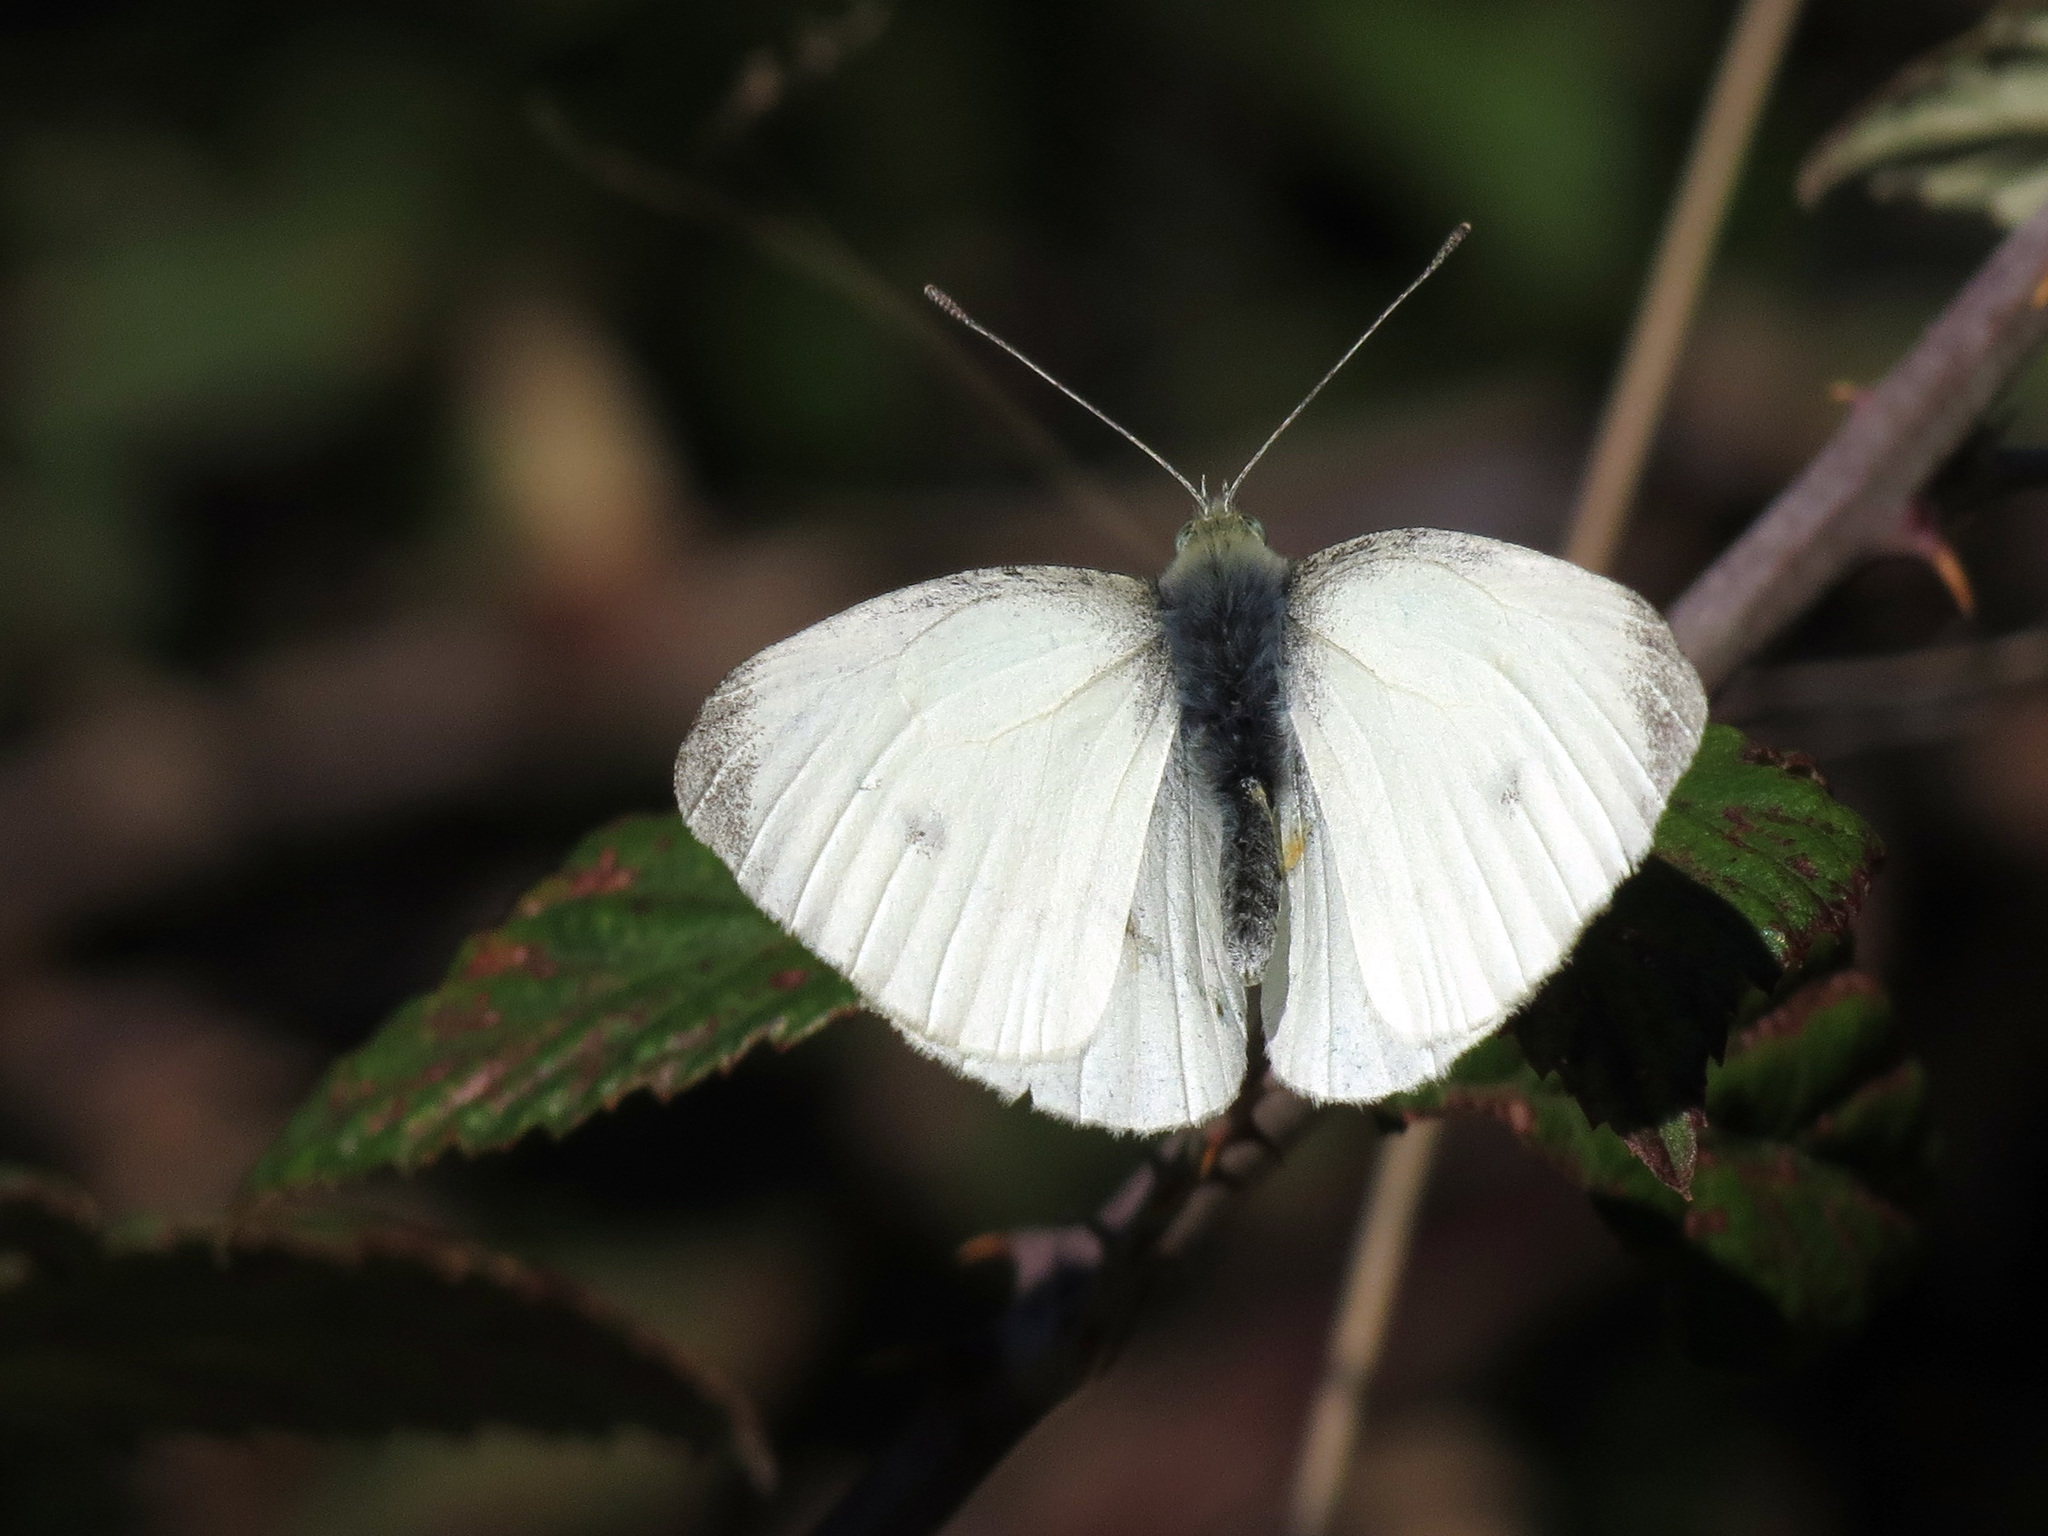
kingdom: Animalia
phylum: Arthropoda
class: Insecta
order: Lepidoptera
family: Pieridae
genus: Pieris
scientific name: Pieris rapae
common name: Small white
